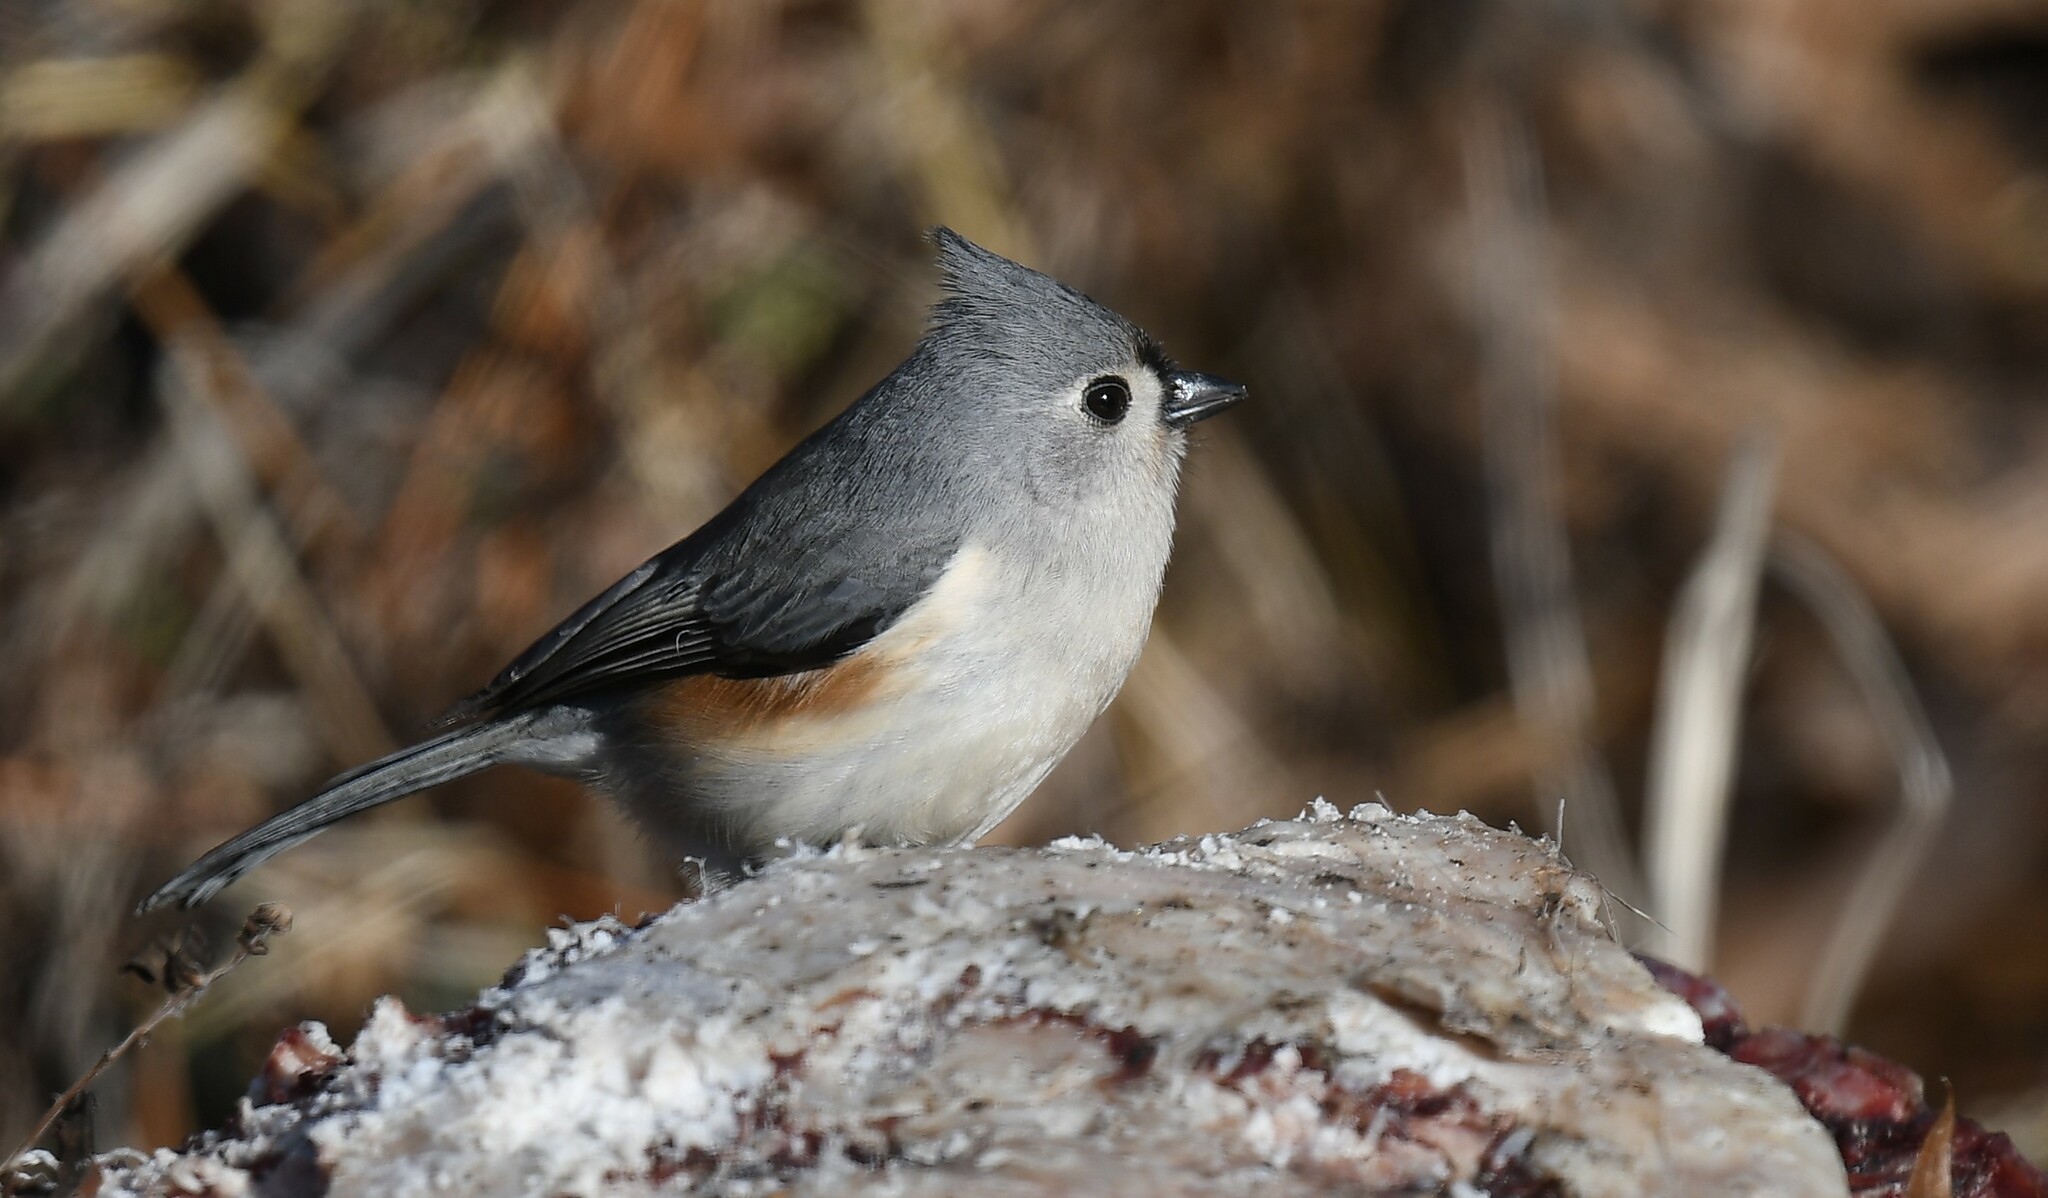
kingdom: Animalia
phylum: Chordata
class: Aves
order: Passeriformes
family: Paridae
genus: Baeolophus
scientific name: Baeolophus bicolor
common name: Tufted titmouse
